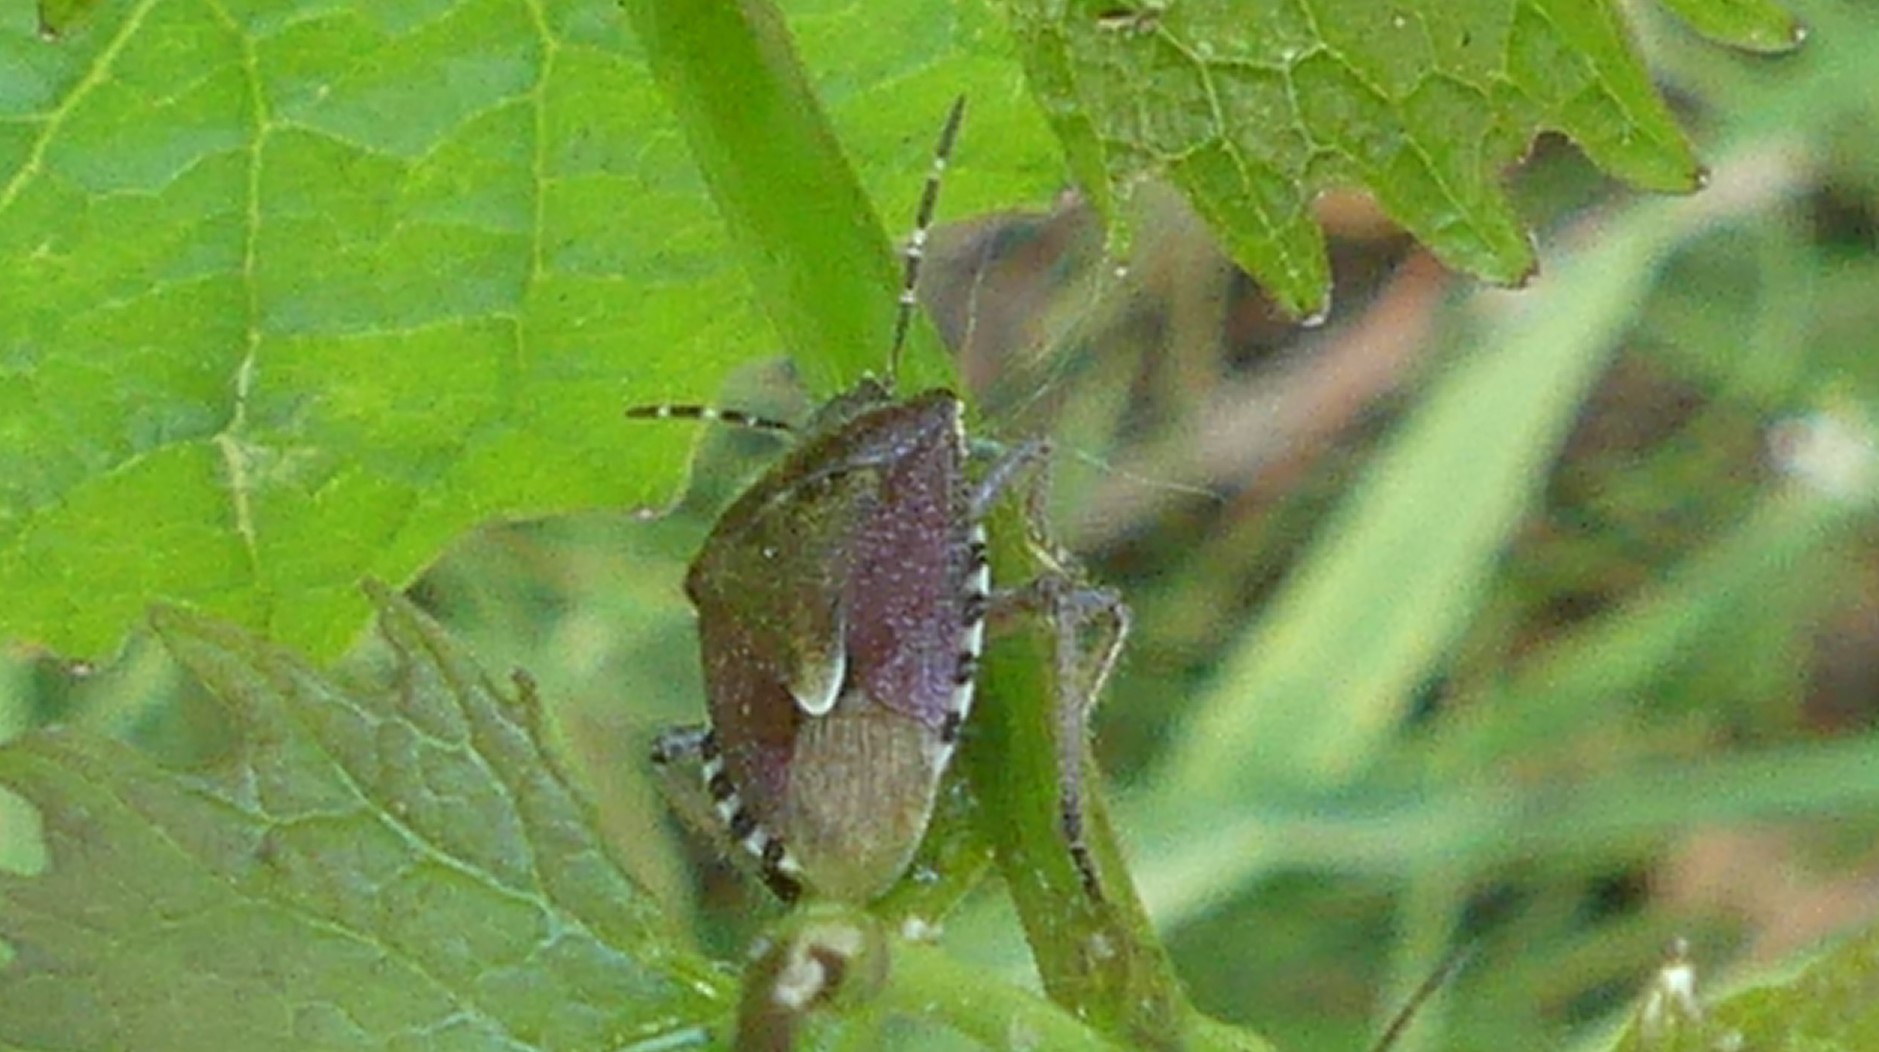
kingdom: Animalia
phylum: Arthropoda
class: Insecta
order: Hemiptera
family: Pentatomidae
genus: Dolycoris
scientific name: Dolycoris baccarum
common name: Sloe bug
